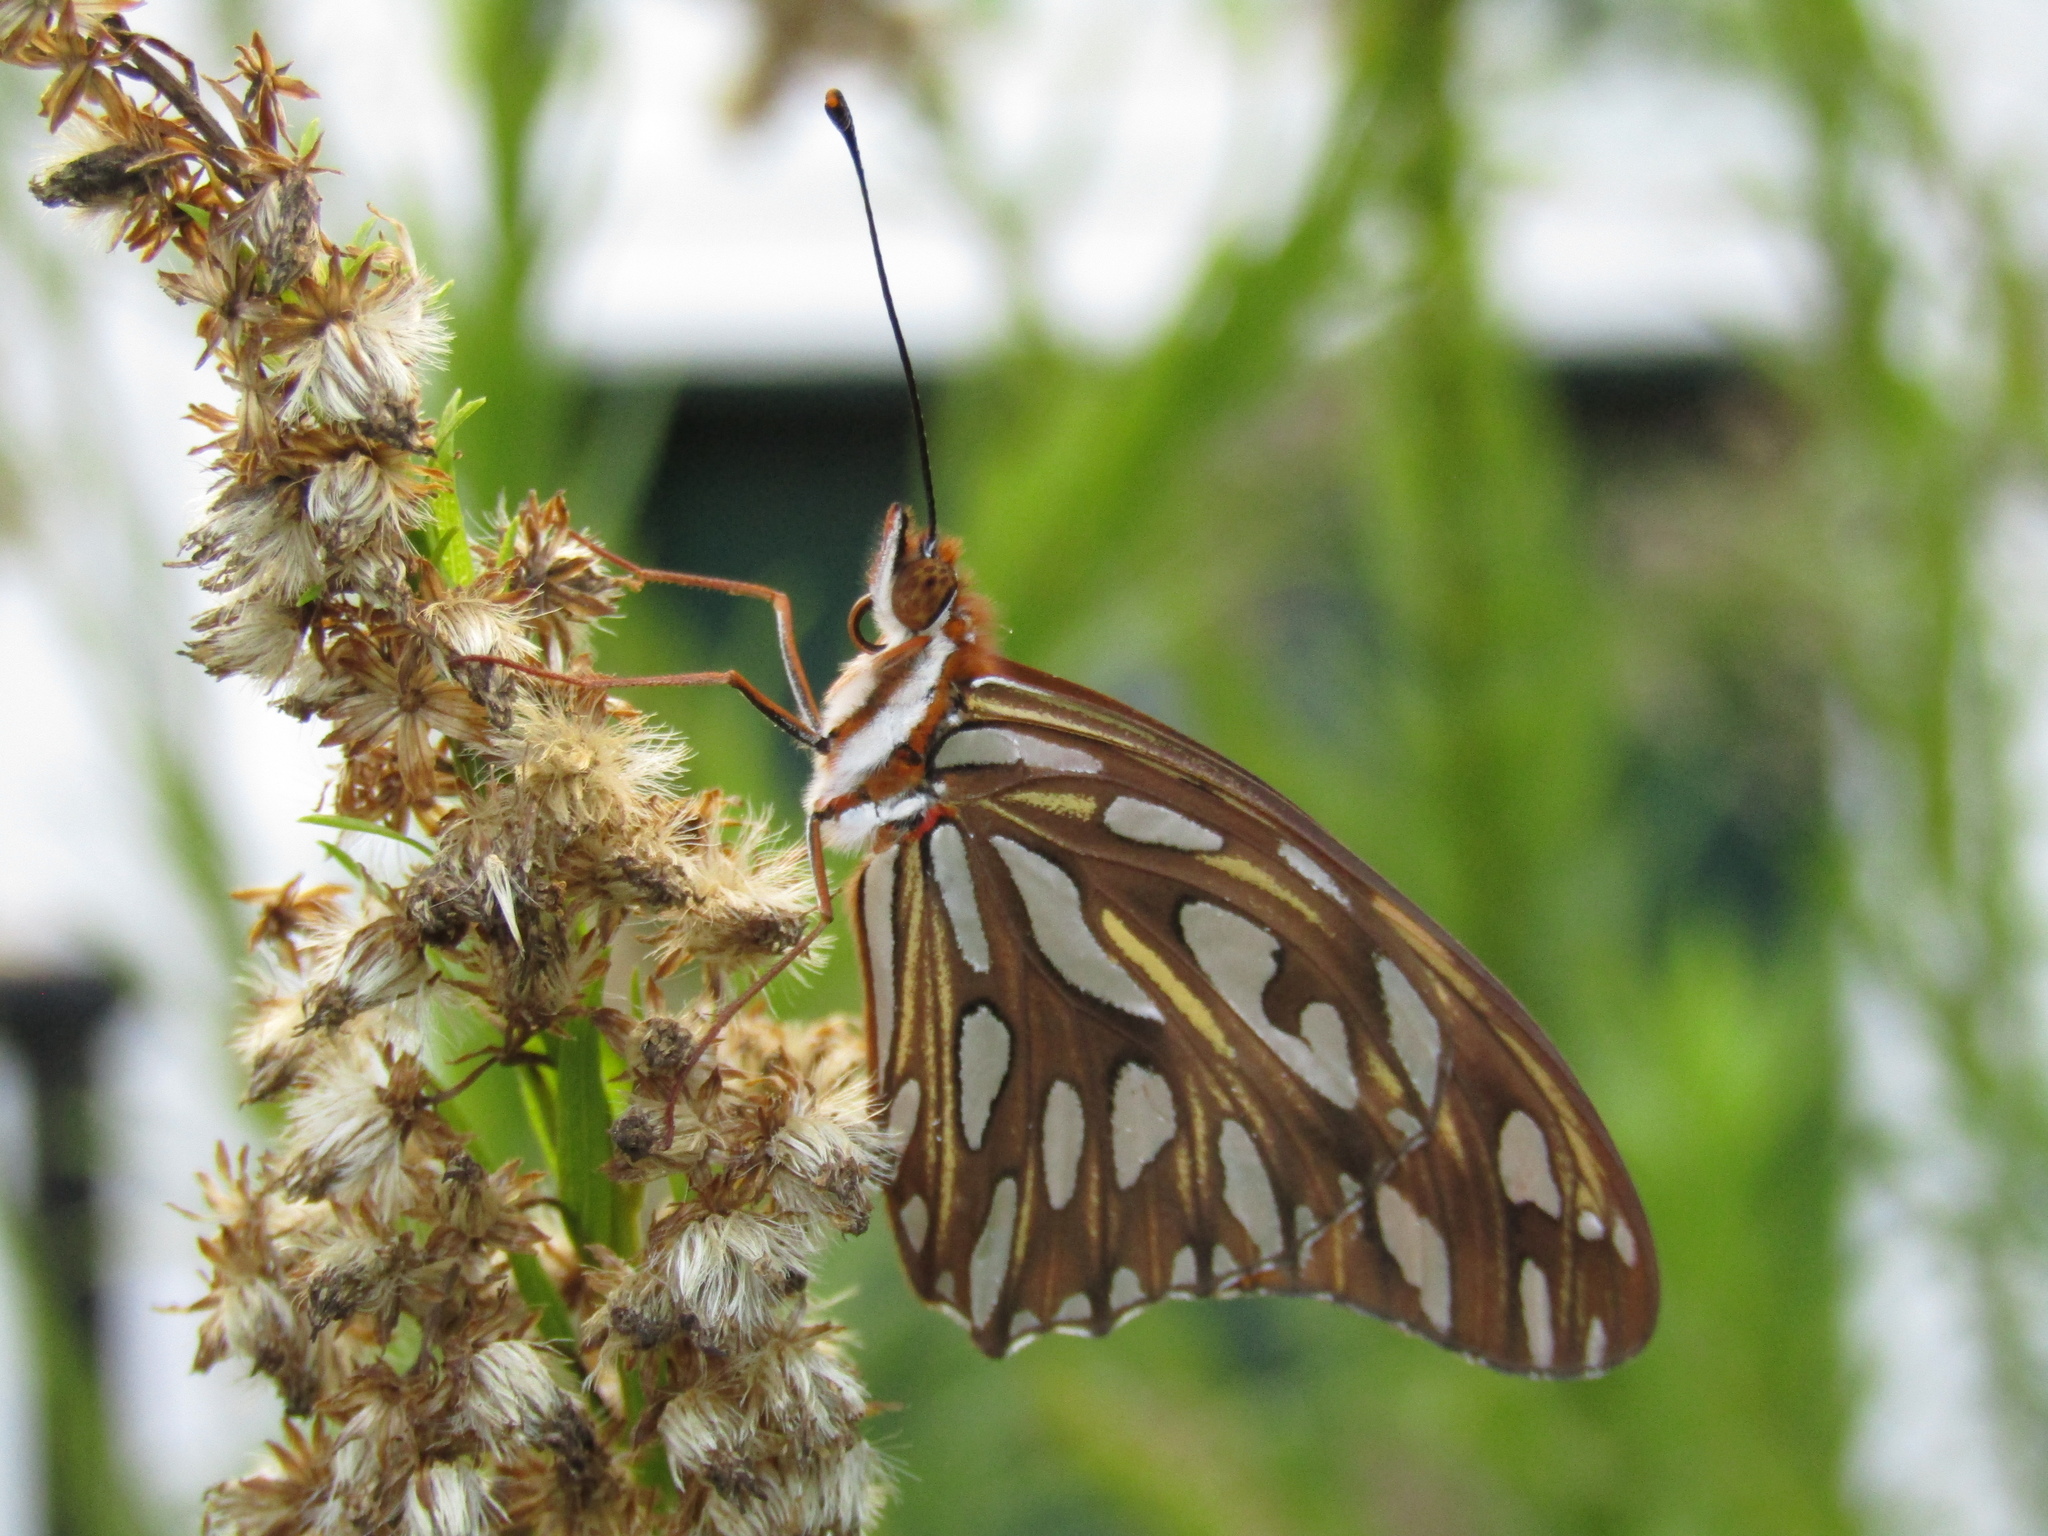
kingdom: Animalia
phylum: Arthropoda
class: Insecta
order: Lepidoptera
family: Nymphalidae
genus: Dione
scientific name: Dione vanillae
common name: Gulf fritillary
